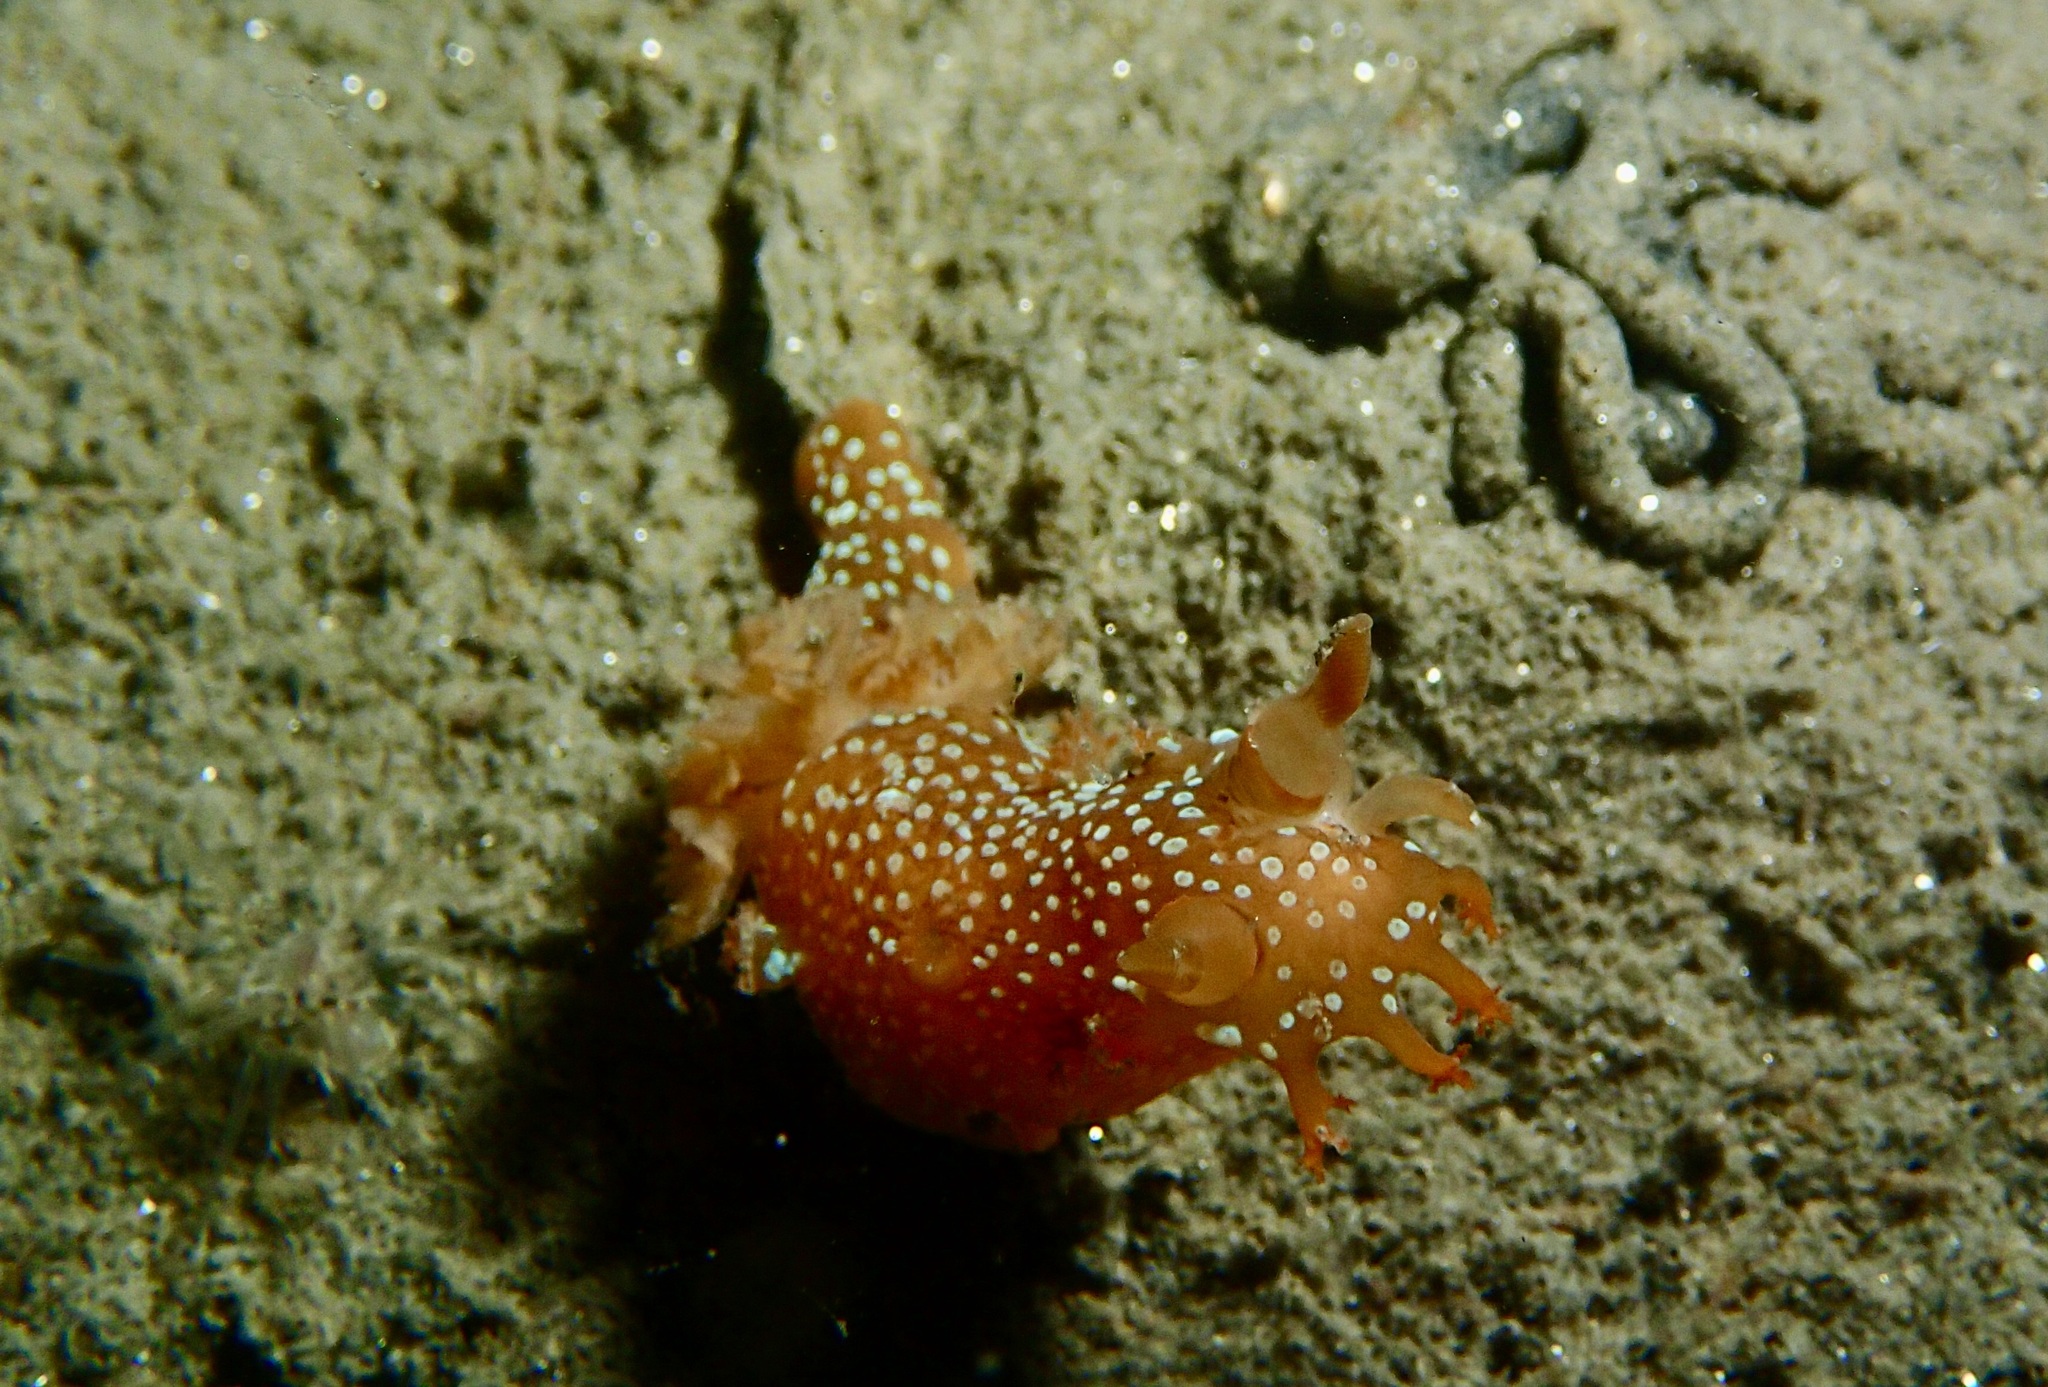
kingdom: Animalia
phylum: Mollusca
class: Gastropoda
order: Nudibranchia
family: Polyceridae
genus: Triopha
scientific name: Triopha maculata
